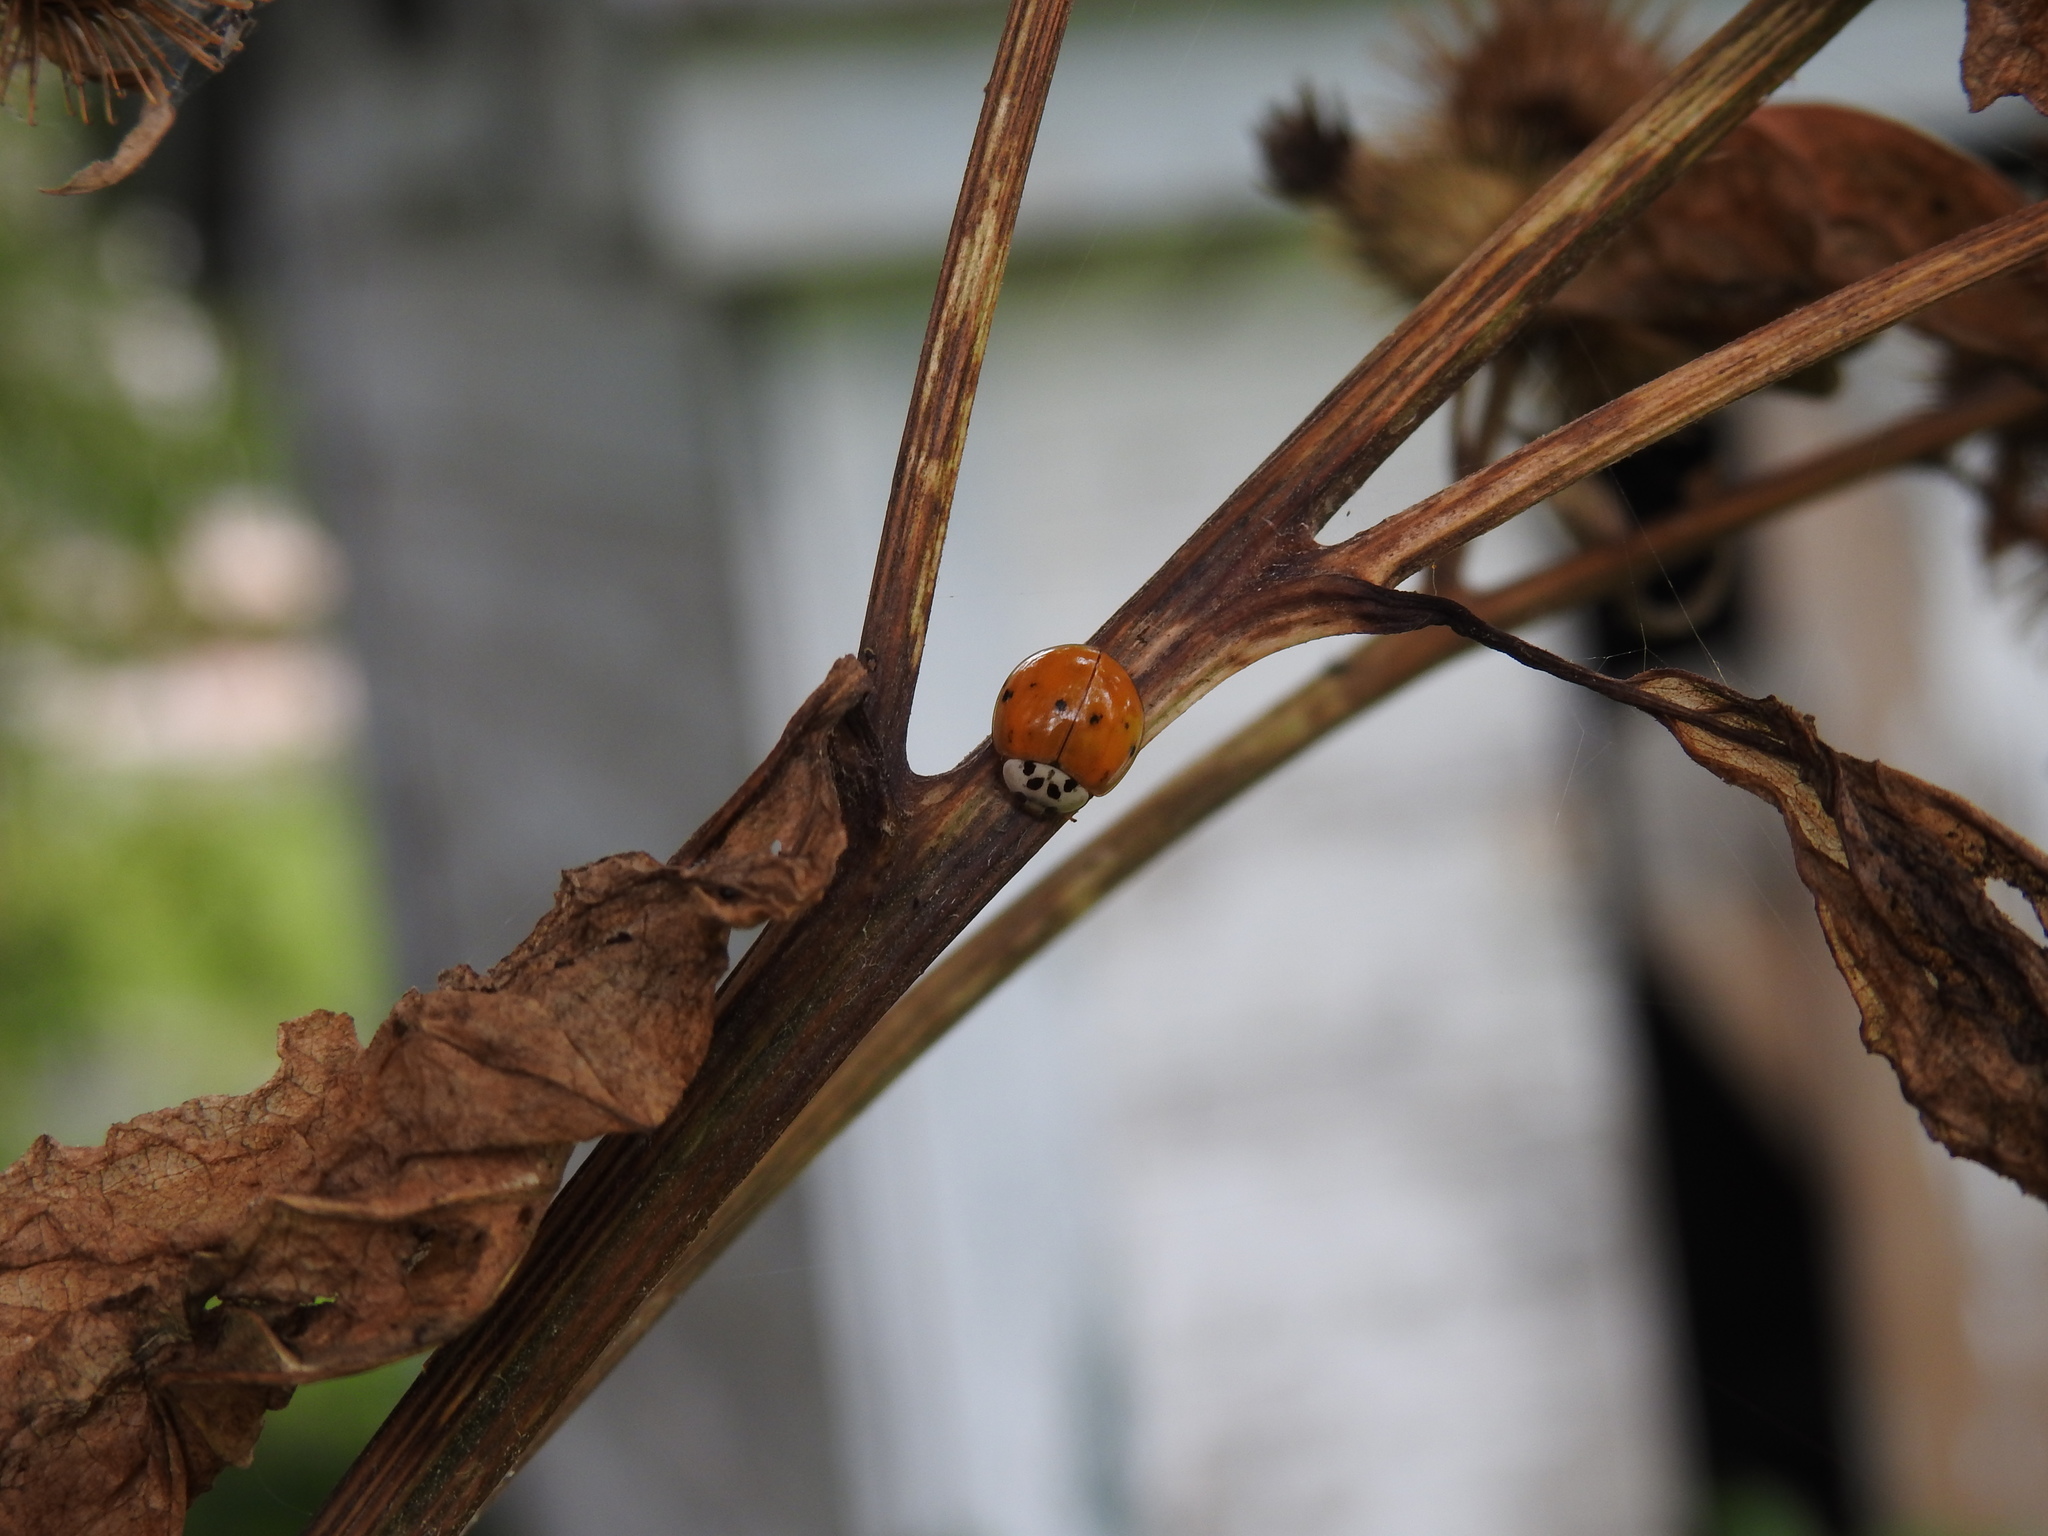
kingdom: Animalia
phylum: Arthropoda
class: Insecta
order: Coleoptera
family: Coccinellidae
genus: Harmonia
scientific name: Harmonia axyridis
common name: Harlequin ladybird
